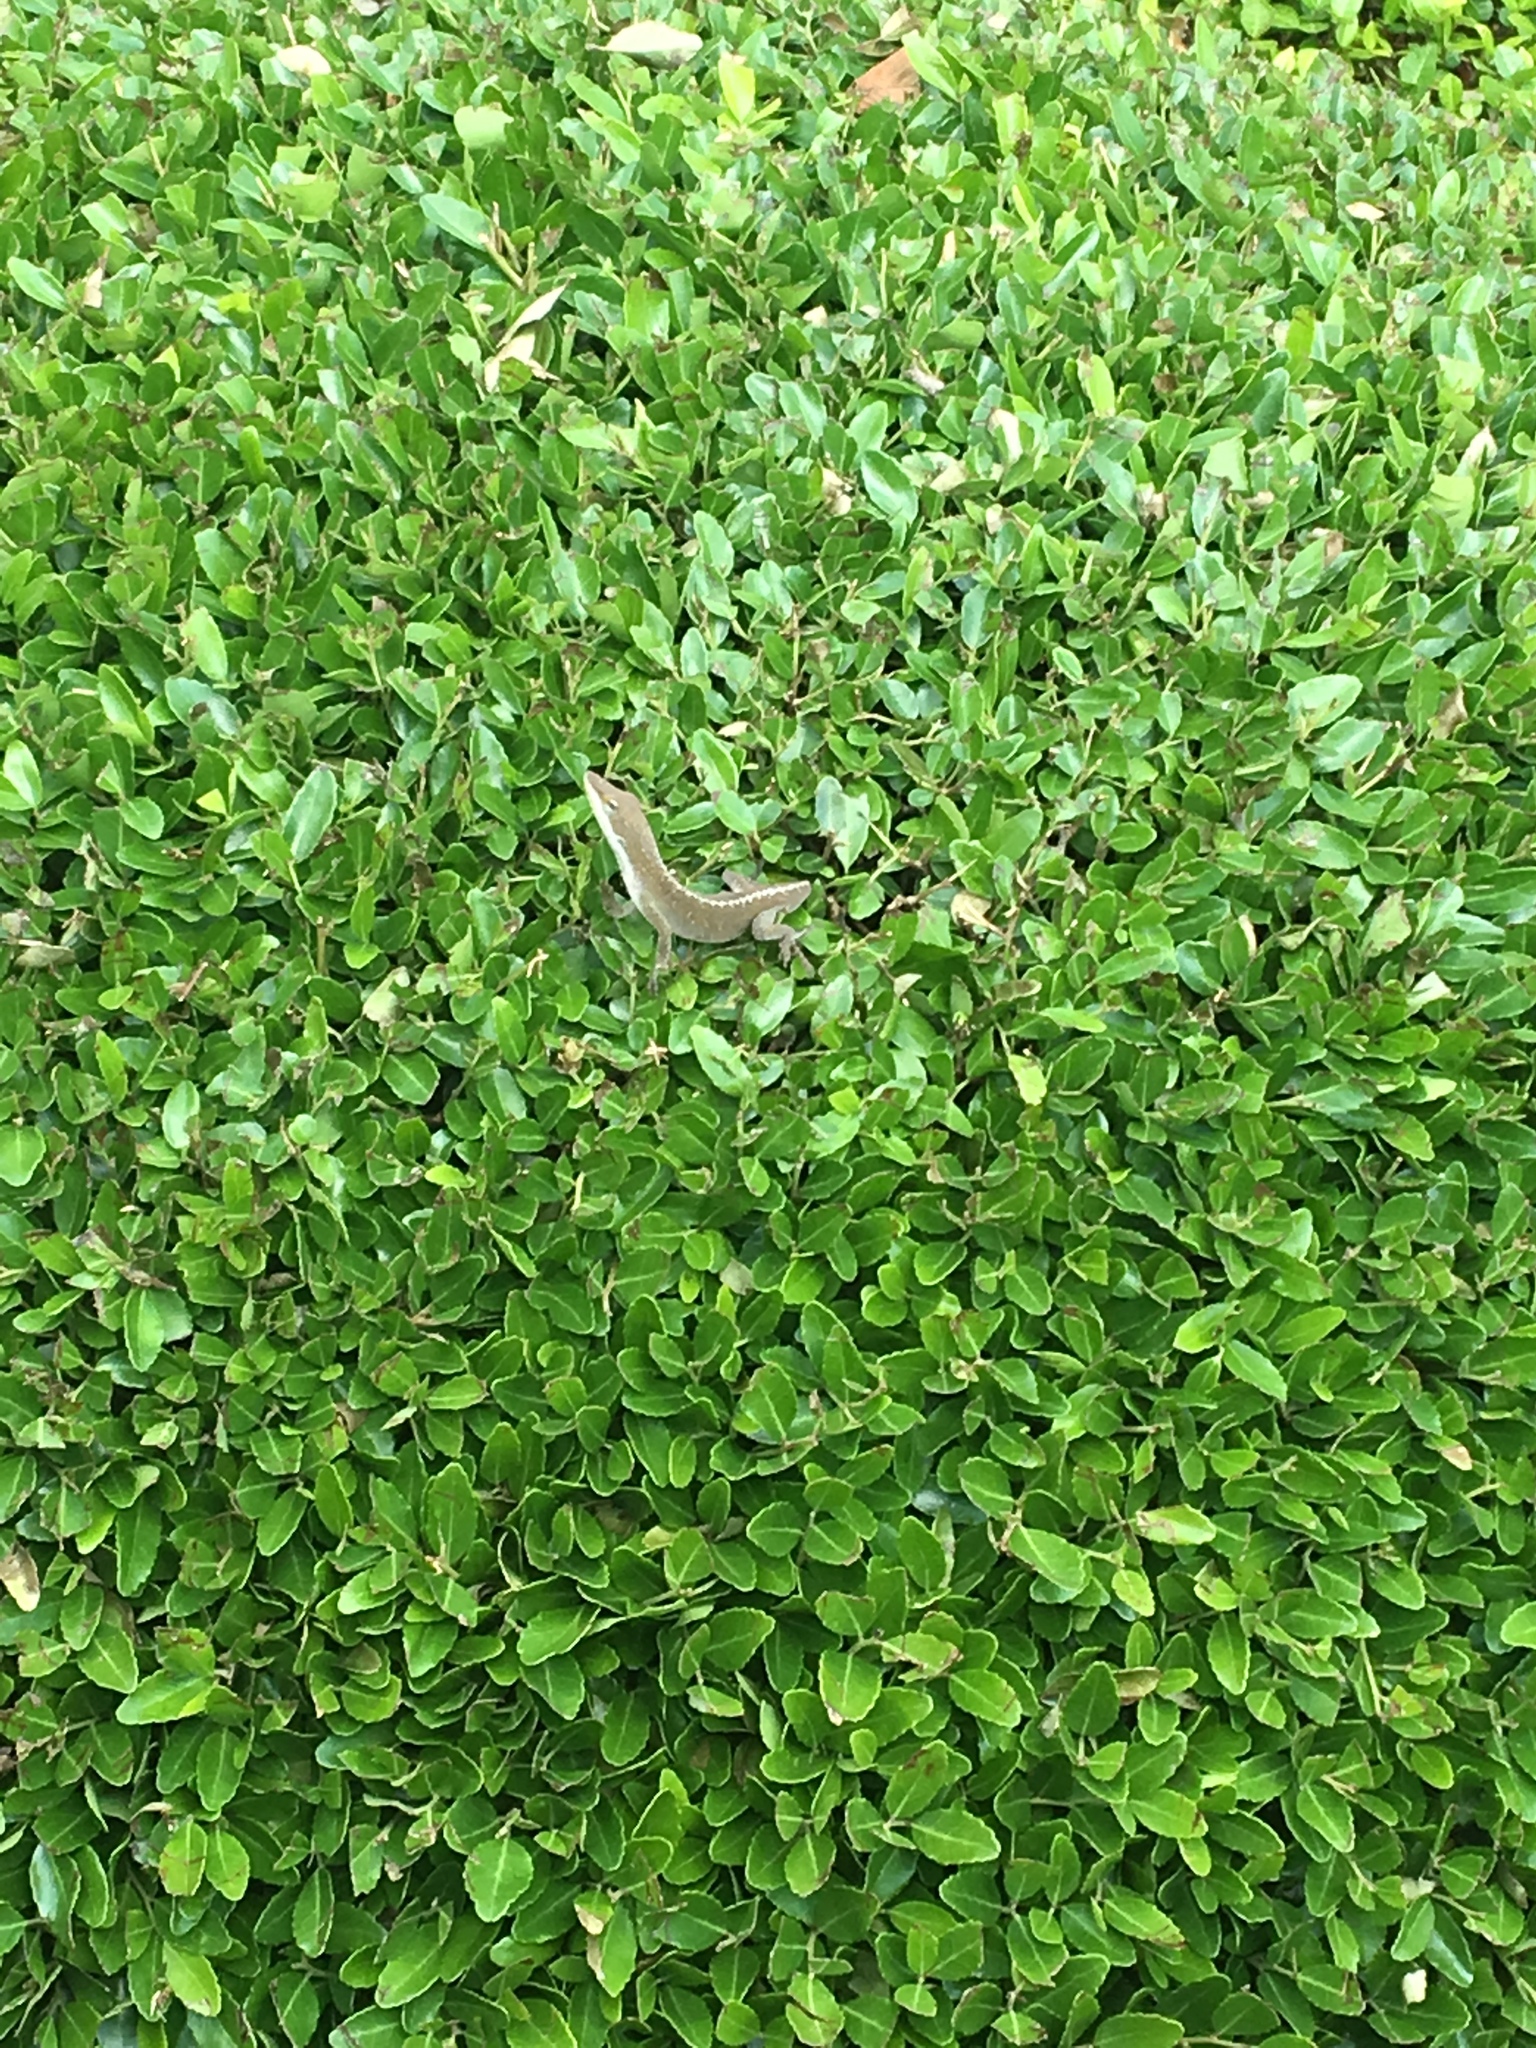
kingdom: Animalia
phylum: Chordata
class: Squamata
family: Dactyloidae
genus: Anolis
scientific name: Anolis carolinensis
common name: Green anole
